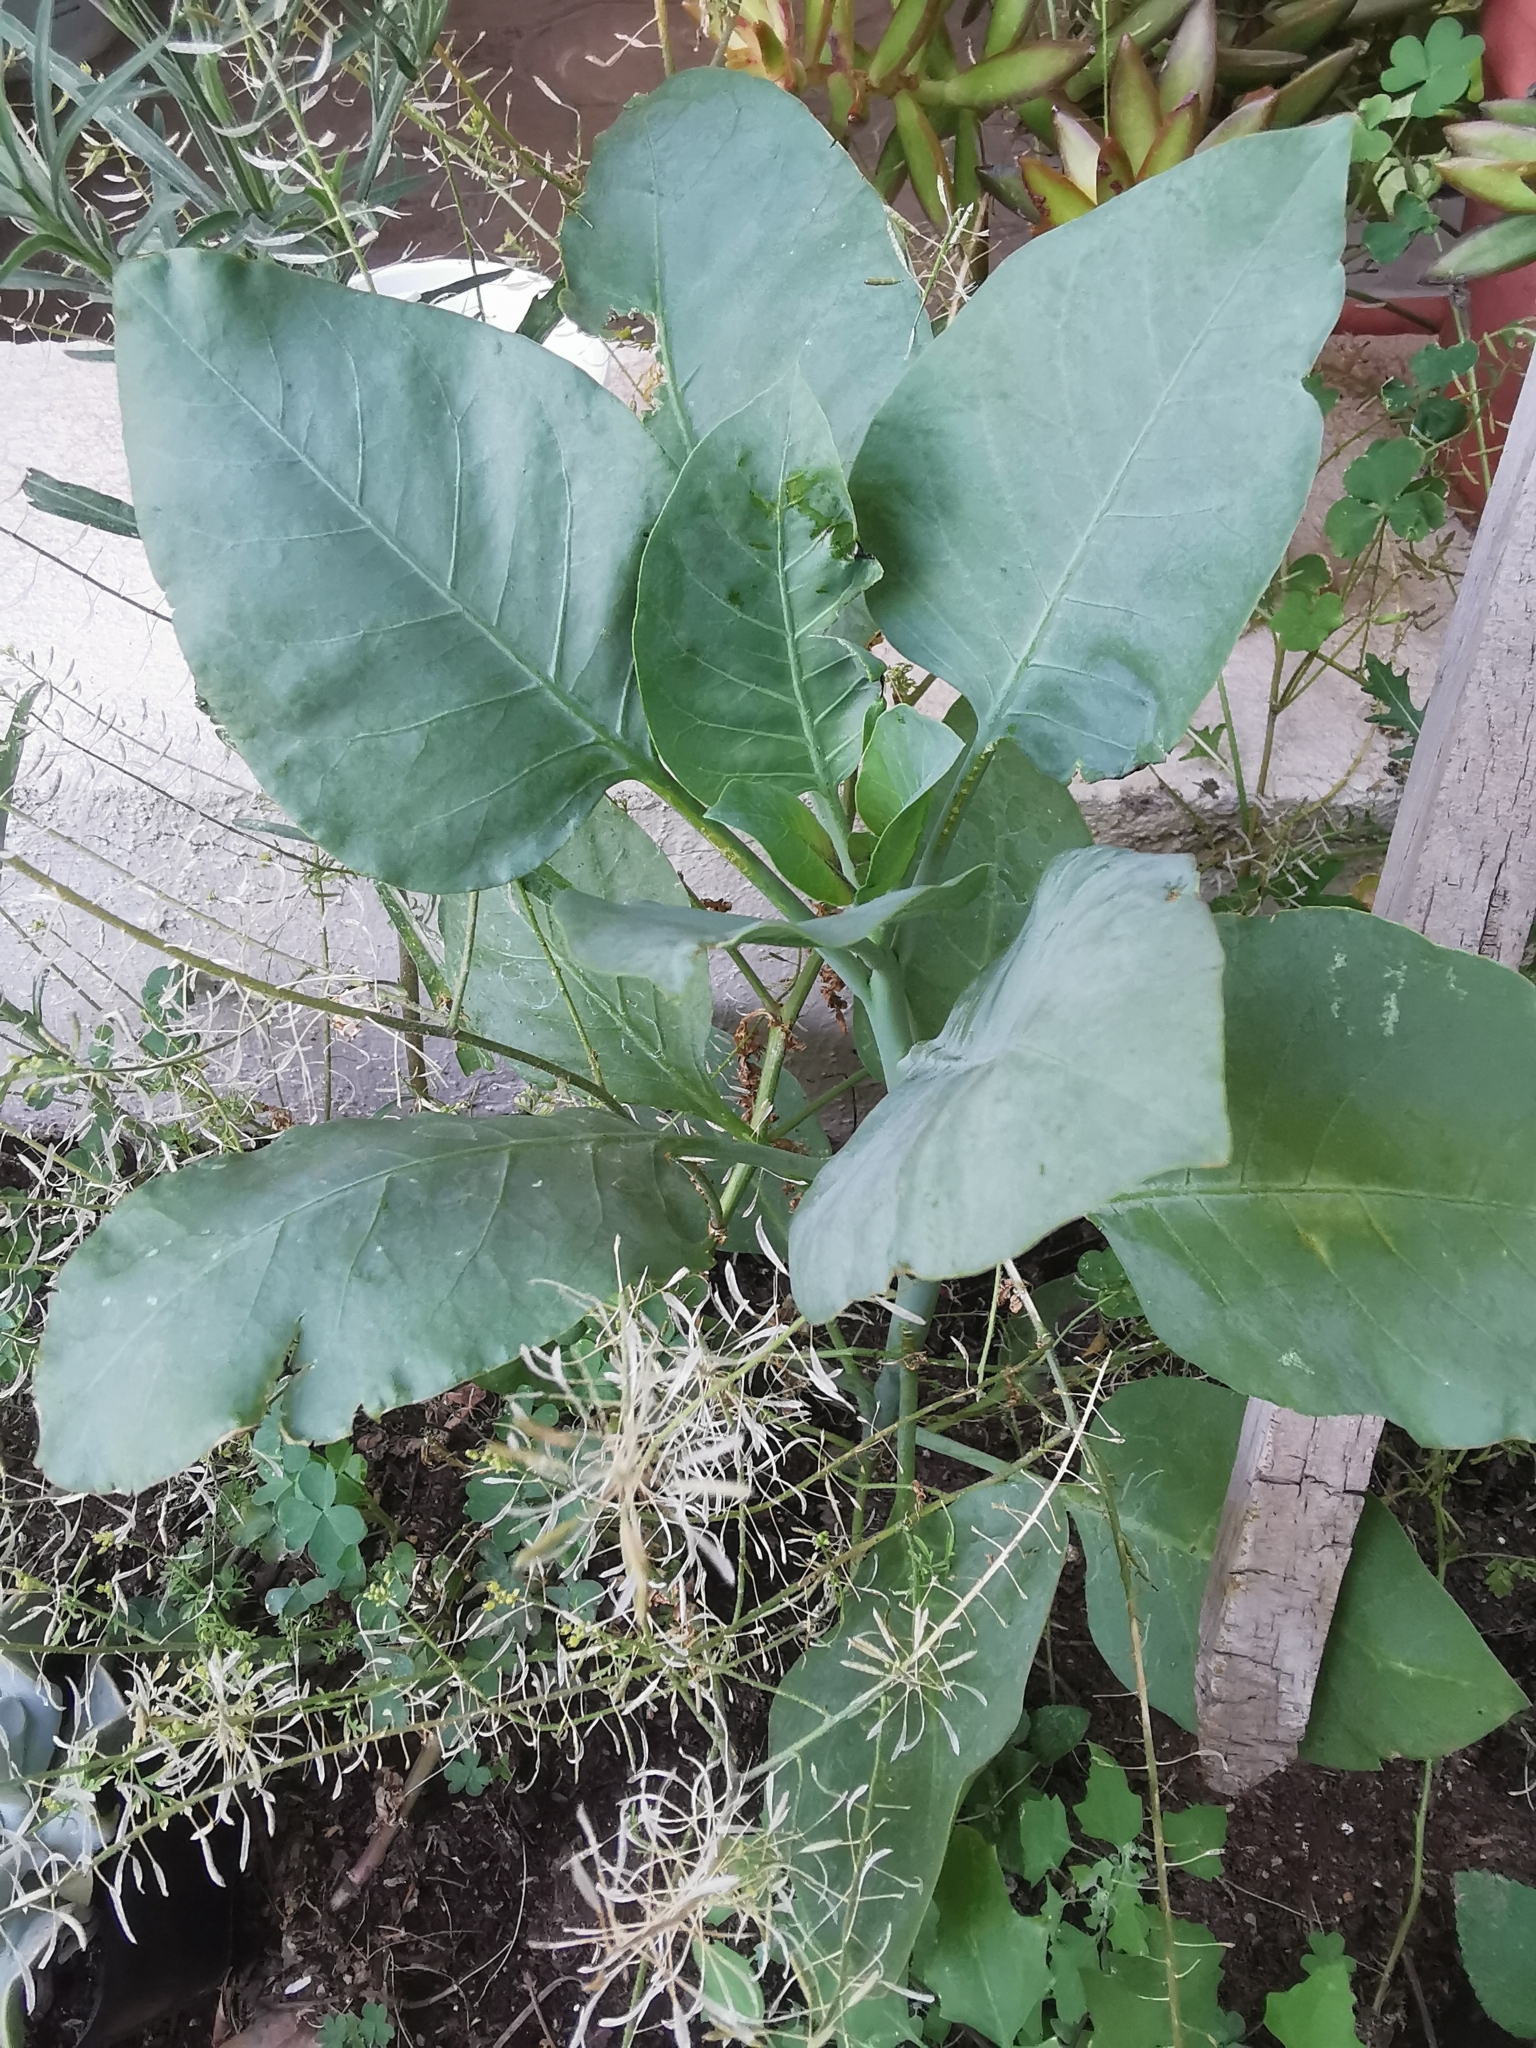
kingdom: Plantae
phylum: Tracheophyta
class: Magnoliopsida
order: Solanales
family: Solanaceae
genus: Nicotiana
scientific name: Nicotiana glauca
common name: Tree tobacco
